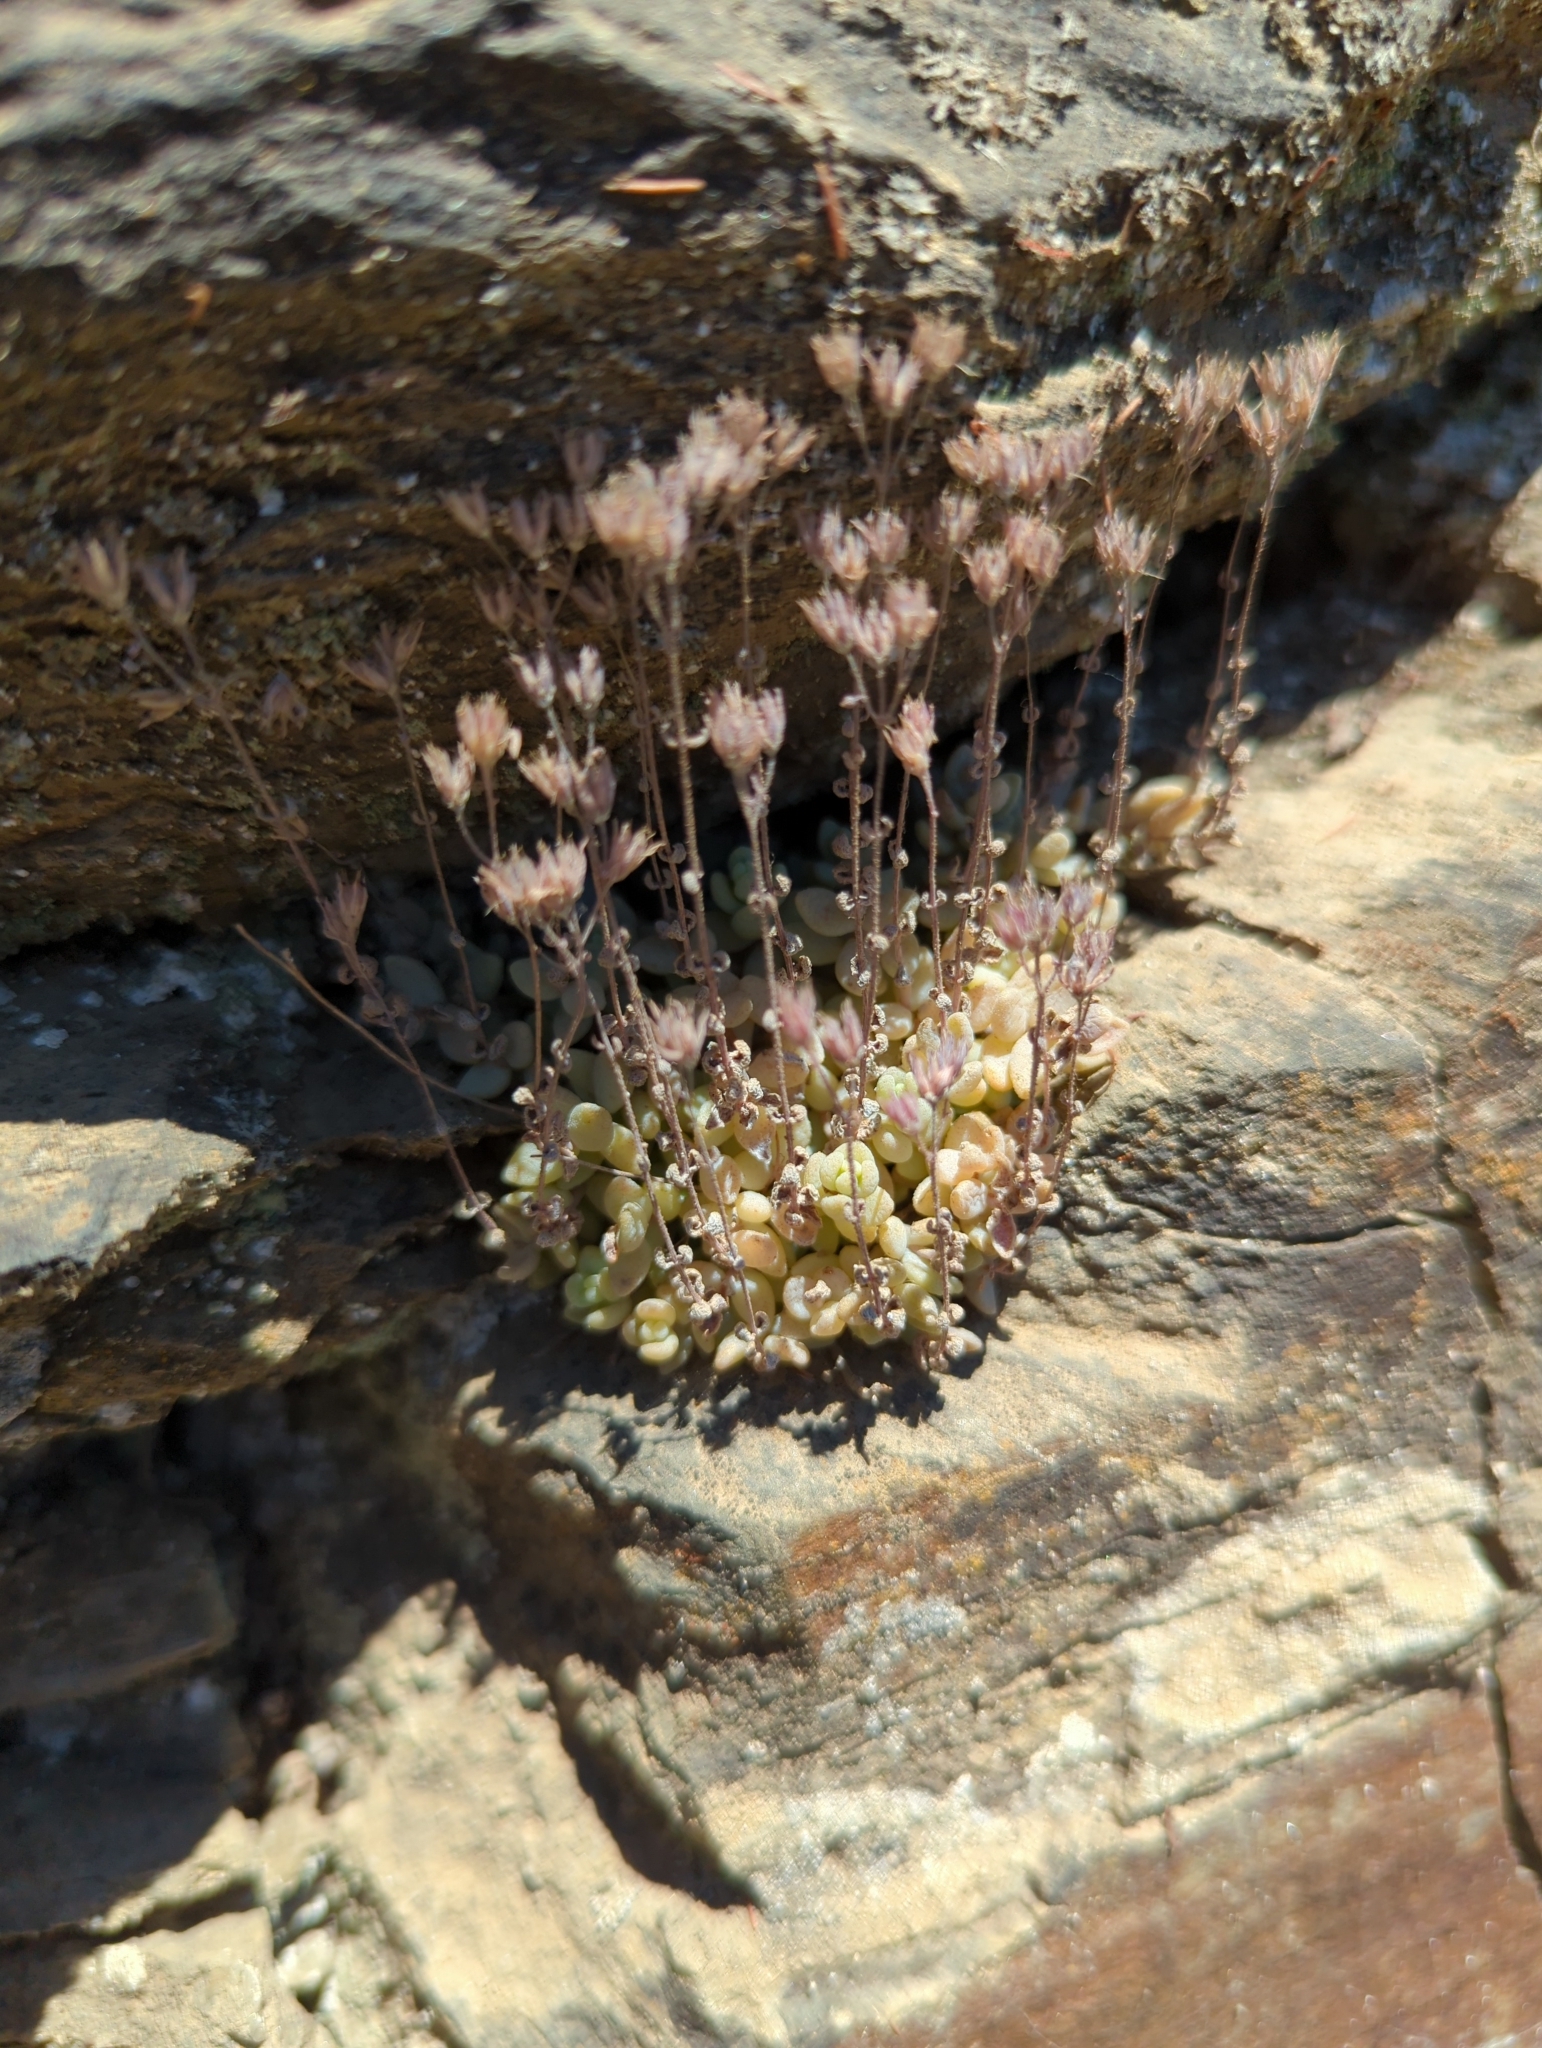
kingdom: Plantae
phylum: Tracheophyta
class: Magnoliopsida
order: Saxifragales
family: Crassulaceae
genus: Sedum
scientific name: Sedum dasyphyllum
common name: Thick-leaf stonecrop
